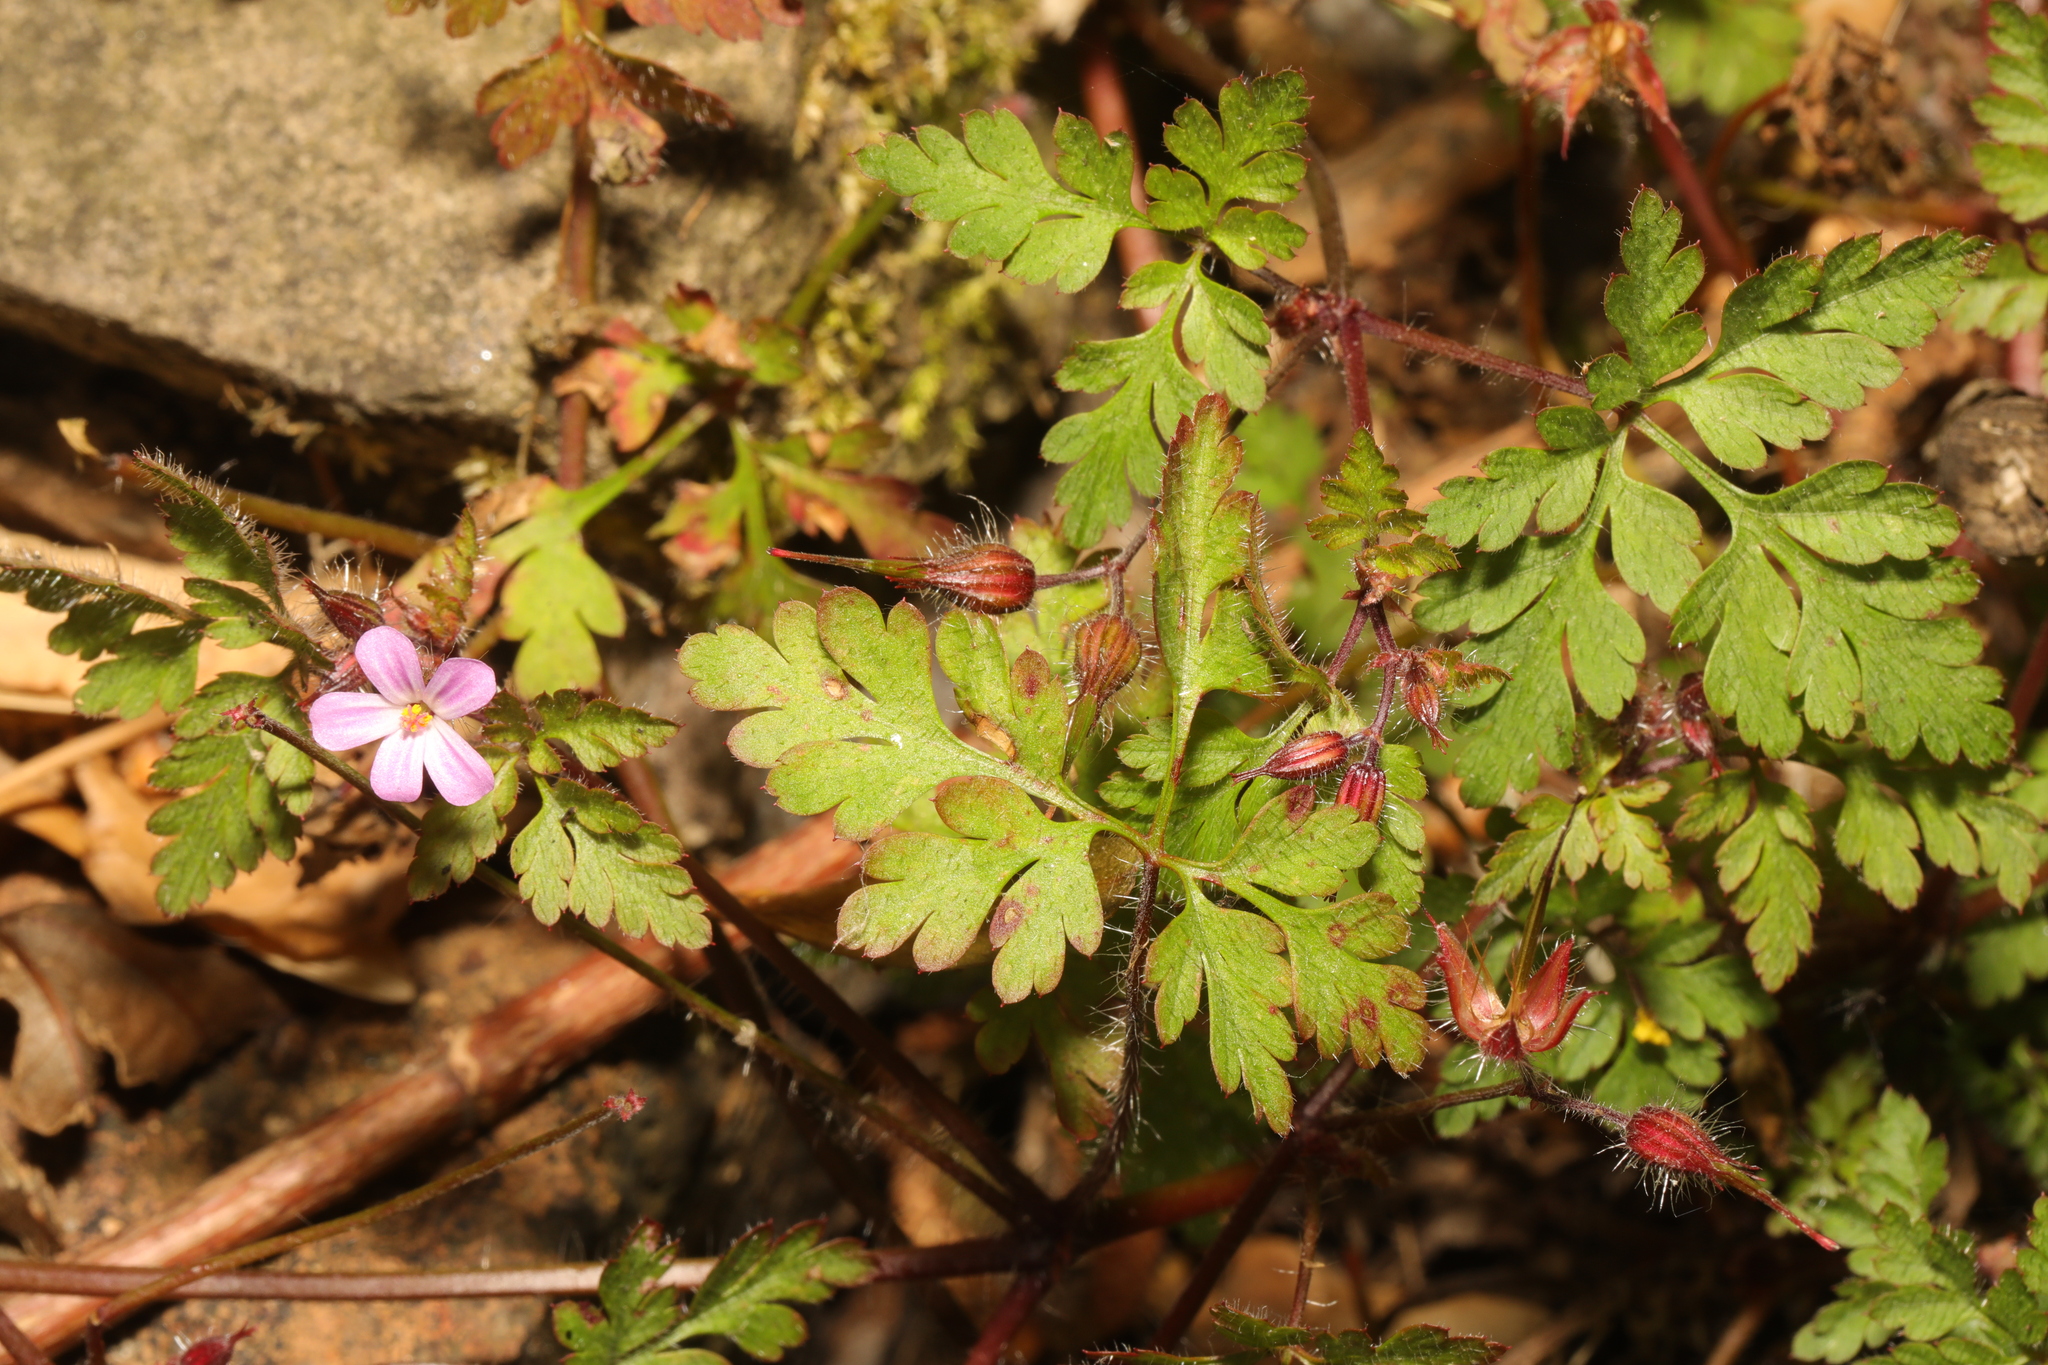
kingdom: Plantae
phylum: Tracheophyta
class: Magnoliopsida
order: Geraniales
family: Geraniaceae
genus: Geranium
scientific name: Geranium robertianum
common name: Herb-robert
